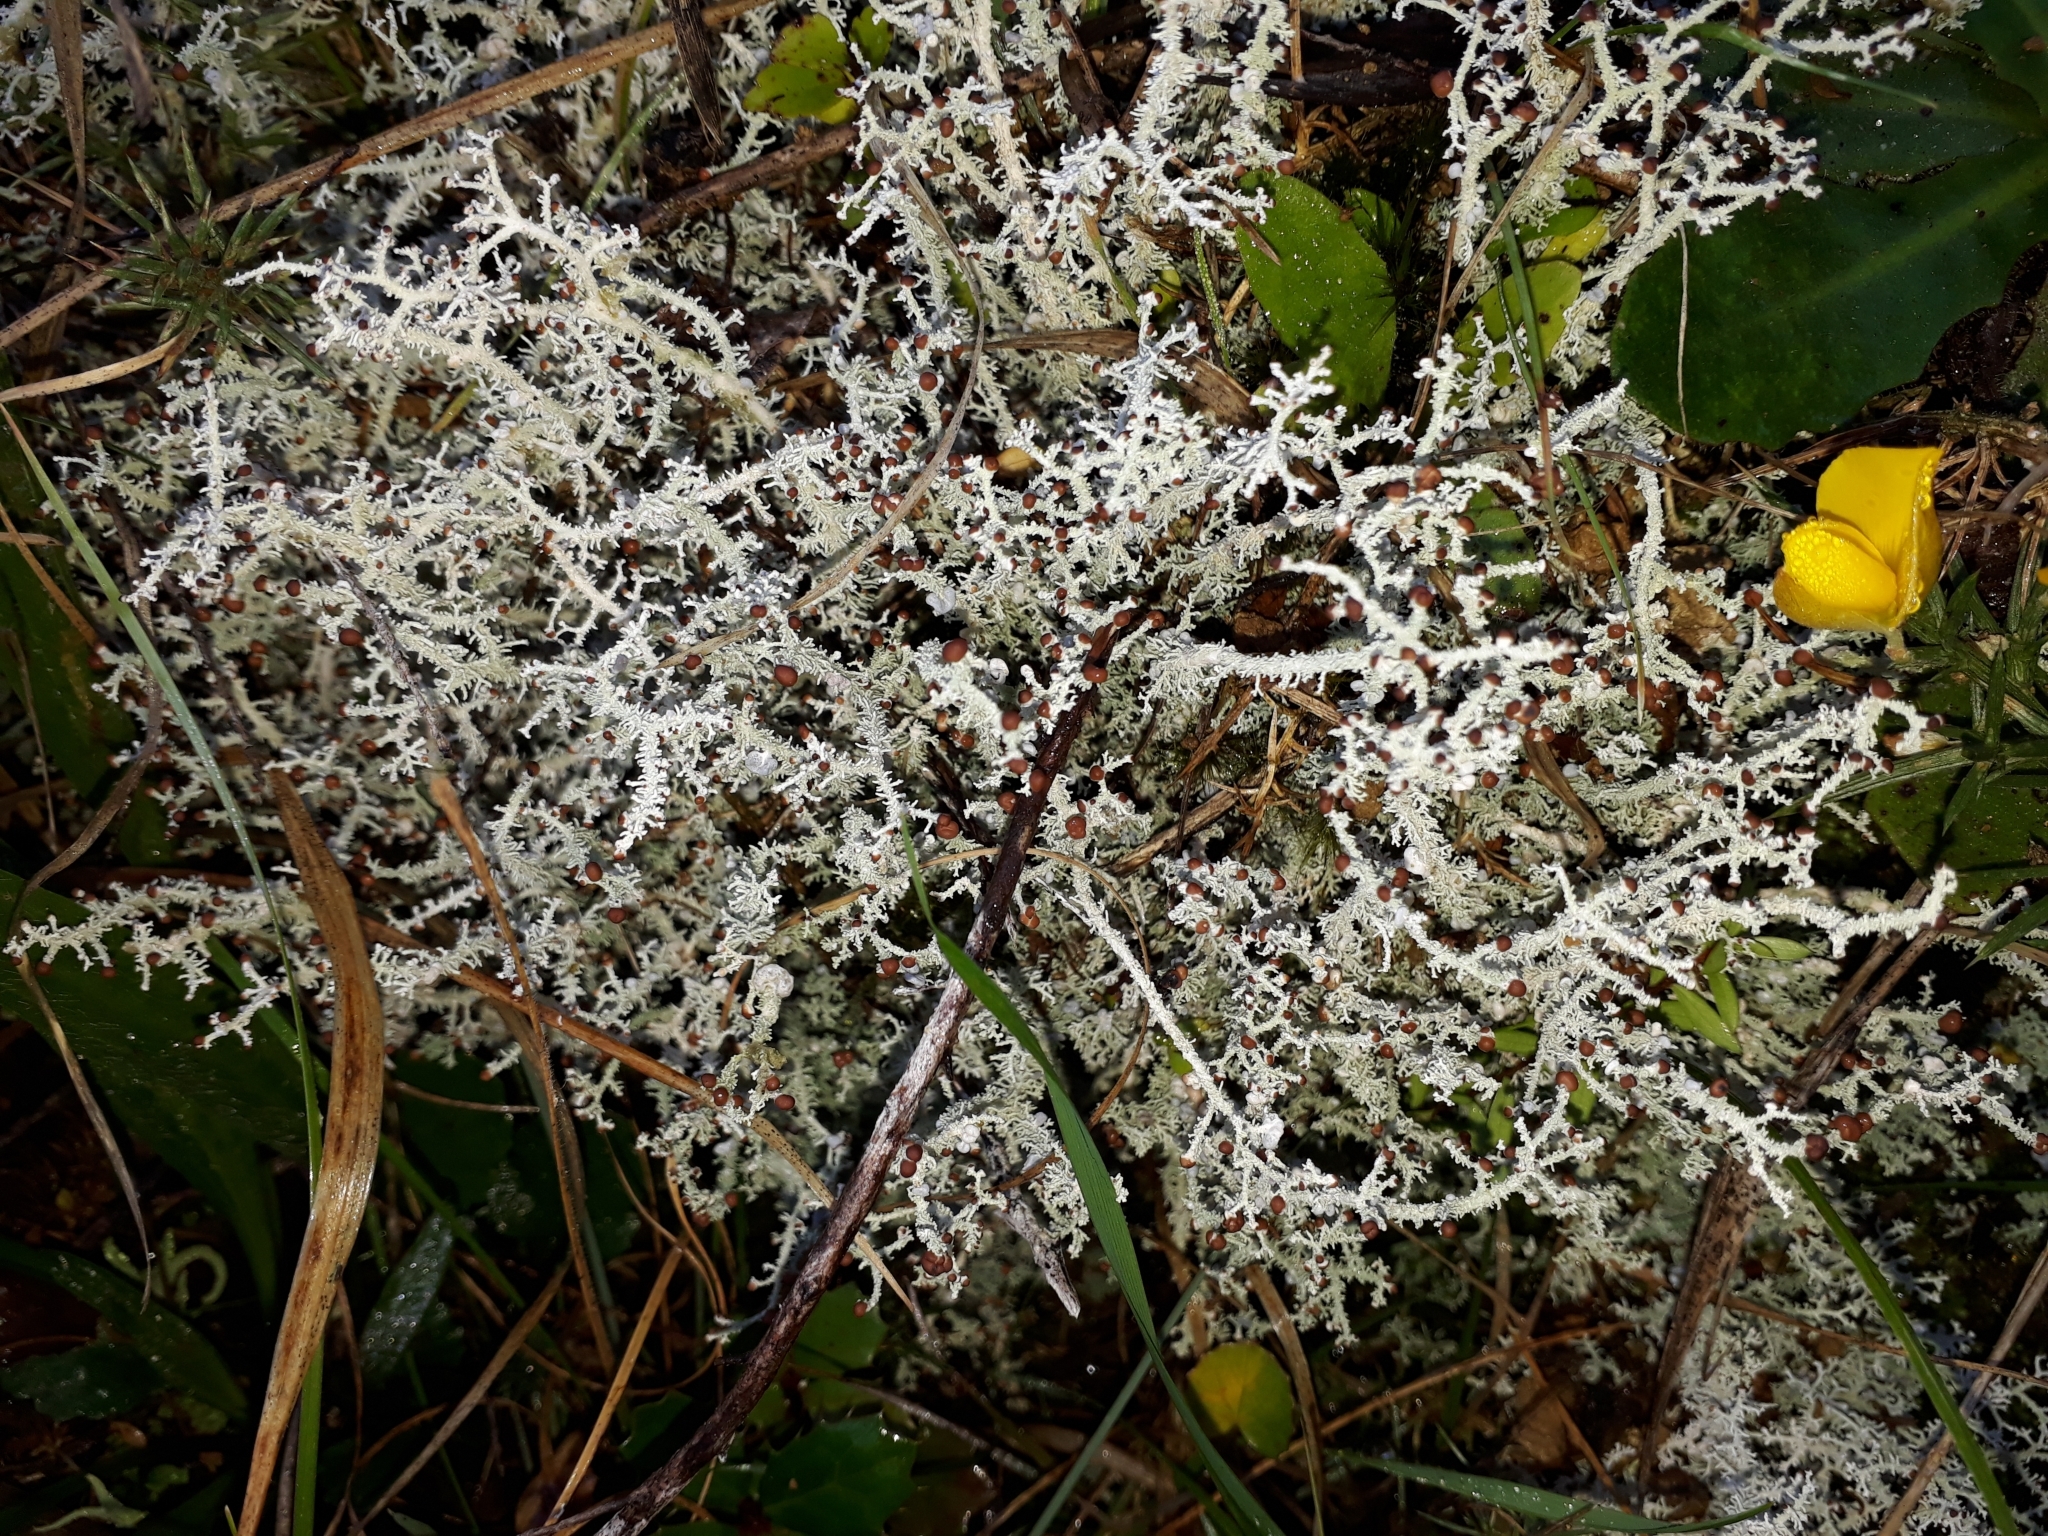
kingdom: Fungi
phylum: Ascomycota
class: Lecanoromycetes
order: Lecanorales
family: Stereocaulaceae
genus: Stereocaulon
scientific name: Stereocaulon ramulosum
